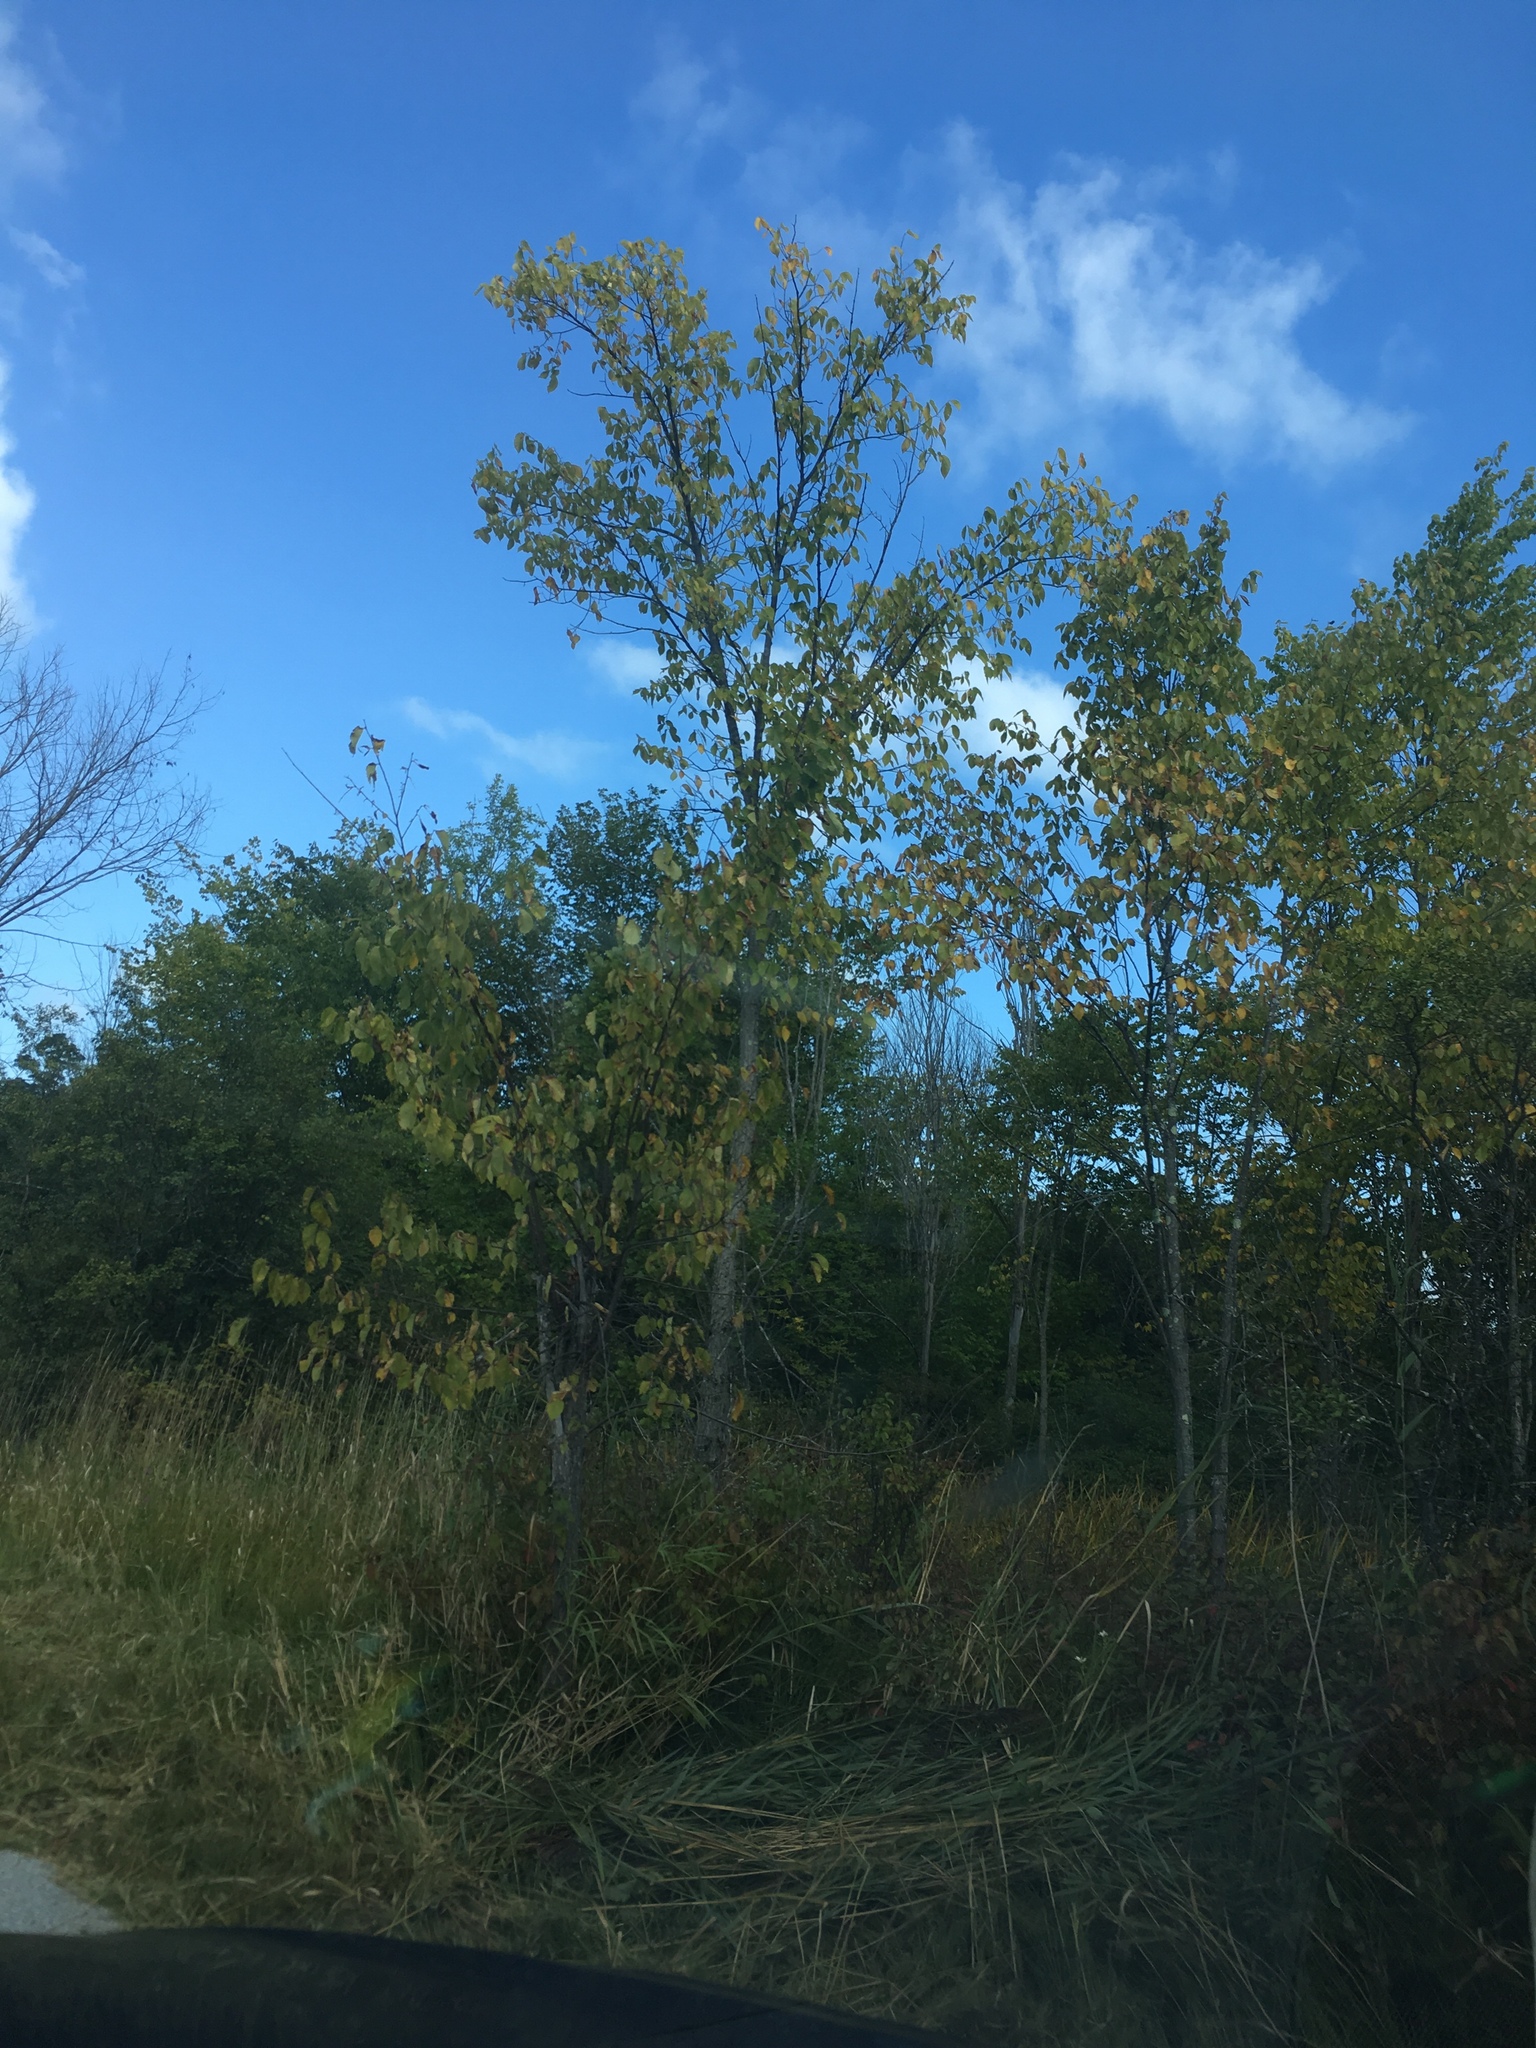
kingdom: Plantae
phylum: Tracheophyta
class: Magnoliopsida
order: Rosales
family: Ulmaceae
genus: Ulmus
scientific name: Ulmus americana
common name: American elm
